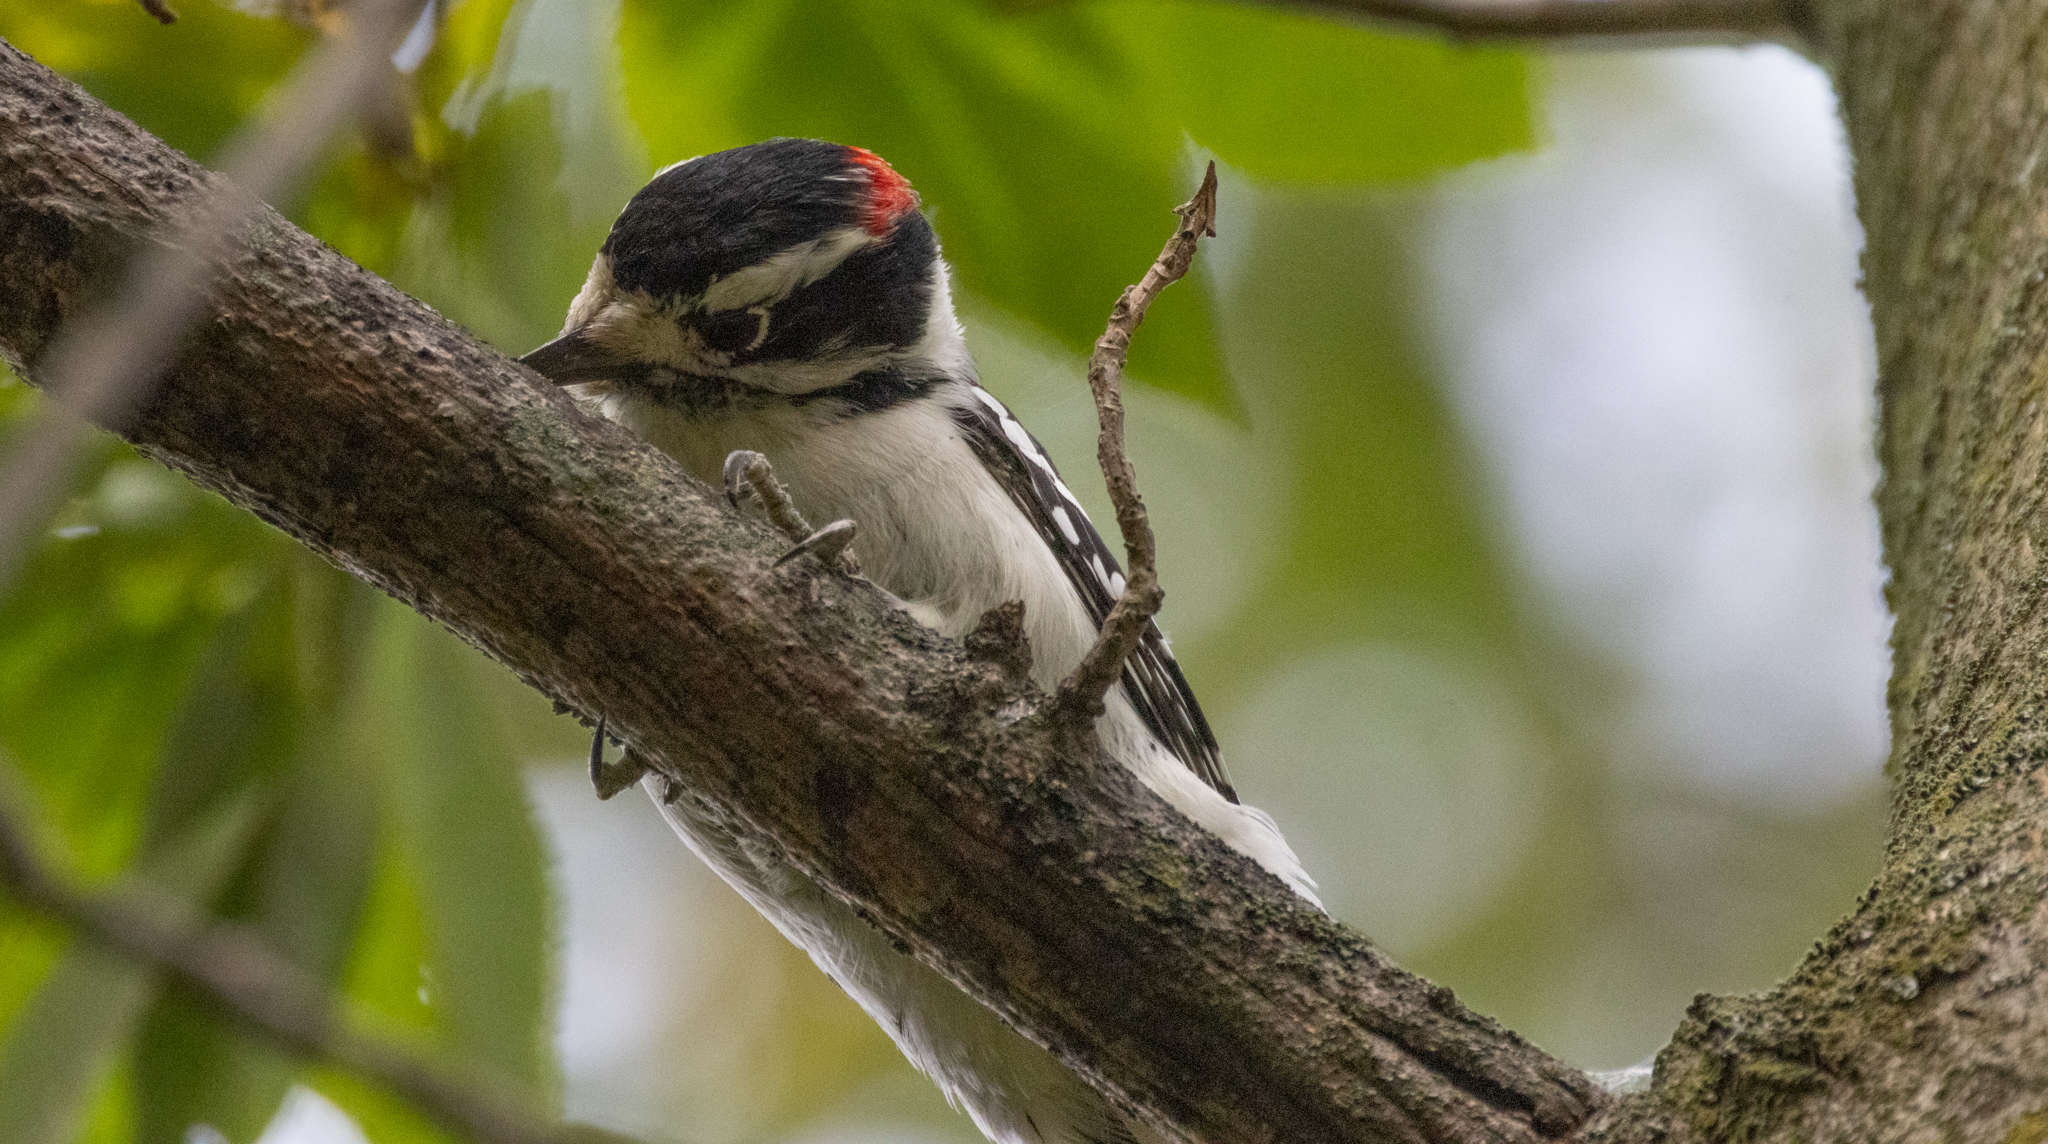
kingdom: Animalia
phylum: Chordata
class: Aves
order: Piciformes
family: Picidae
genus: Dryobates
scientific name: Dryobates pubescens
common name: Downy woodpecker
